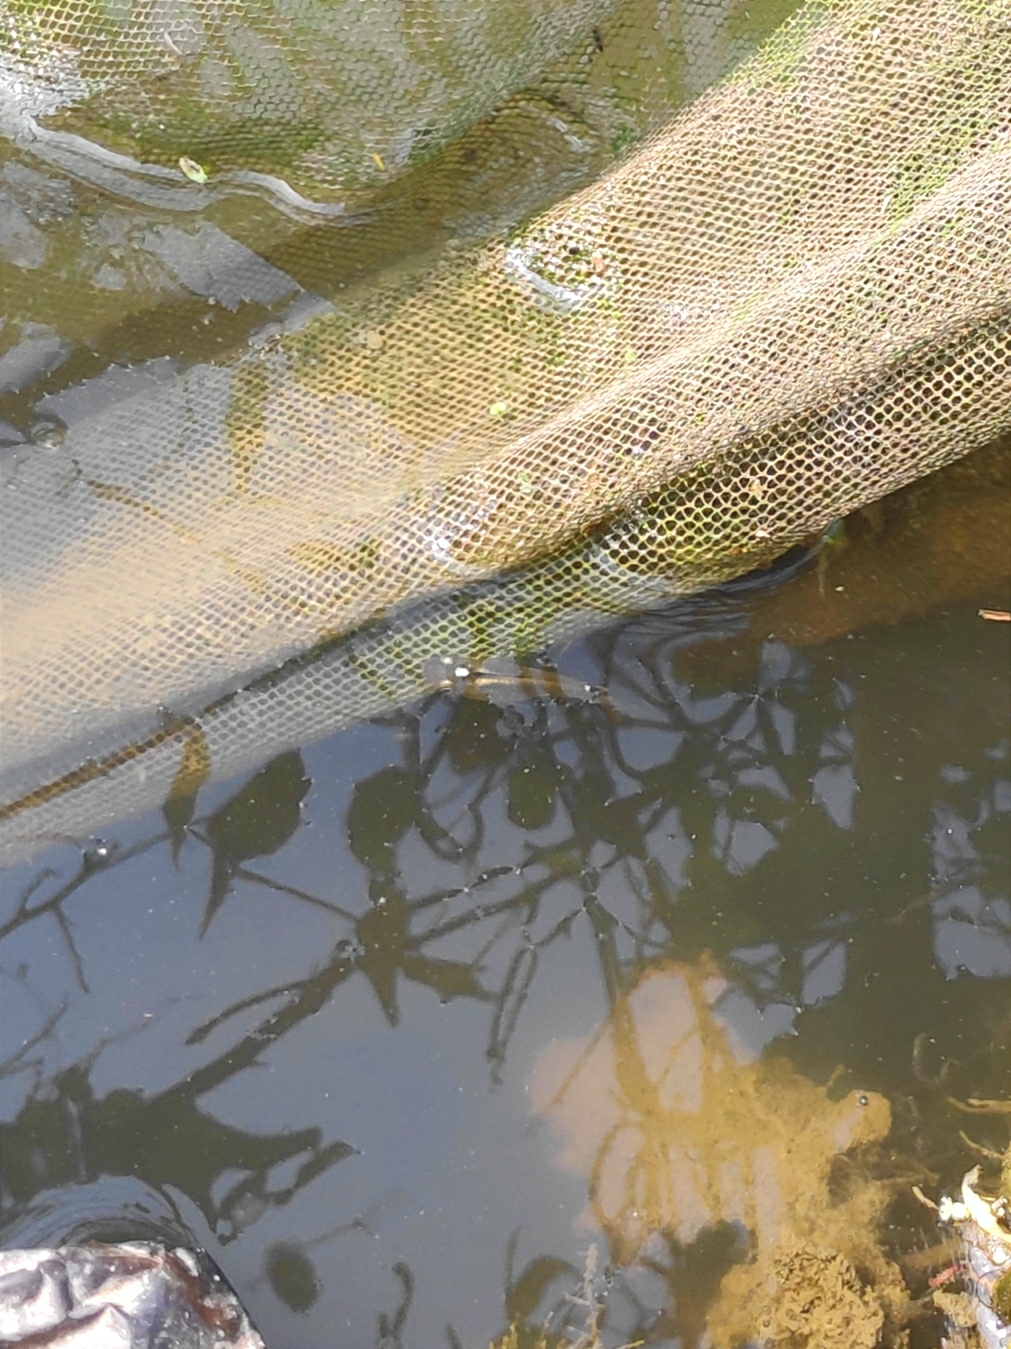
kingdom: Animalia
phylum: Chordata
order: Cyprinodontiformes
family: Aplocheilidae
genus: Aplocheilus
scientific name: Aplocheilus panchax
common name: Blue panchax
